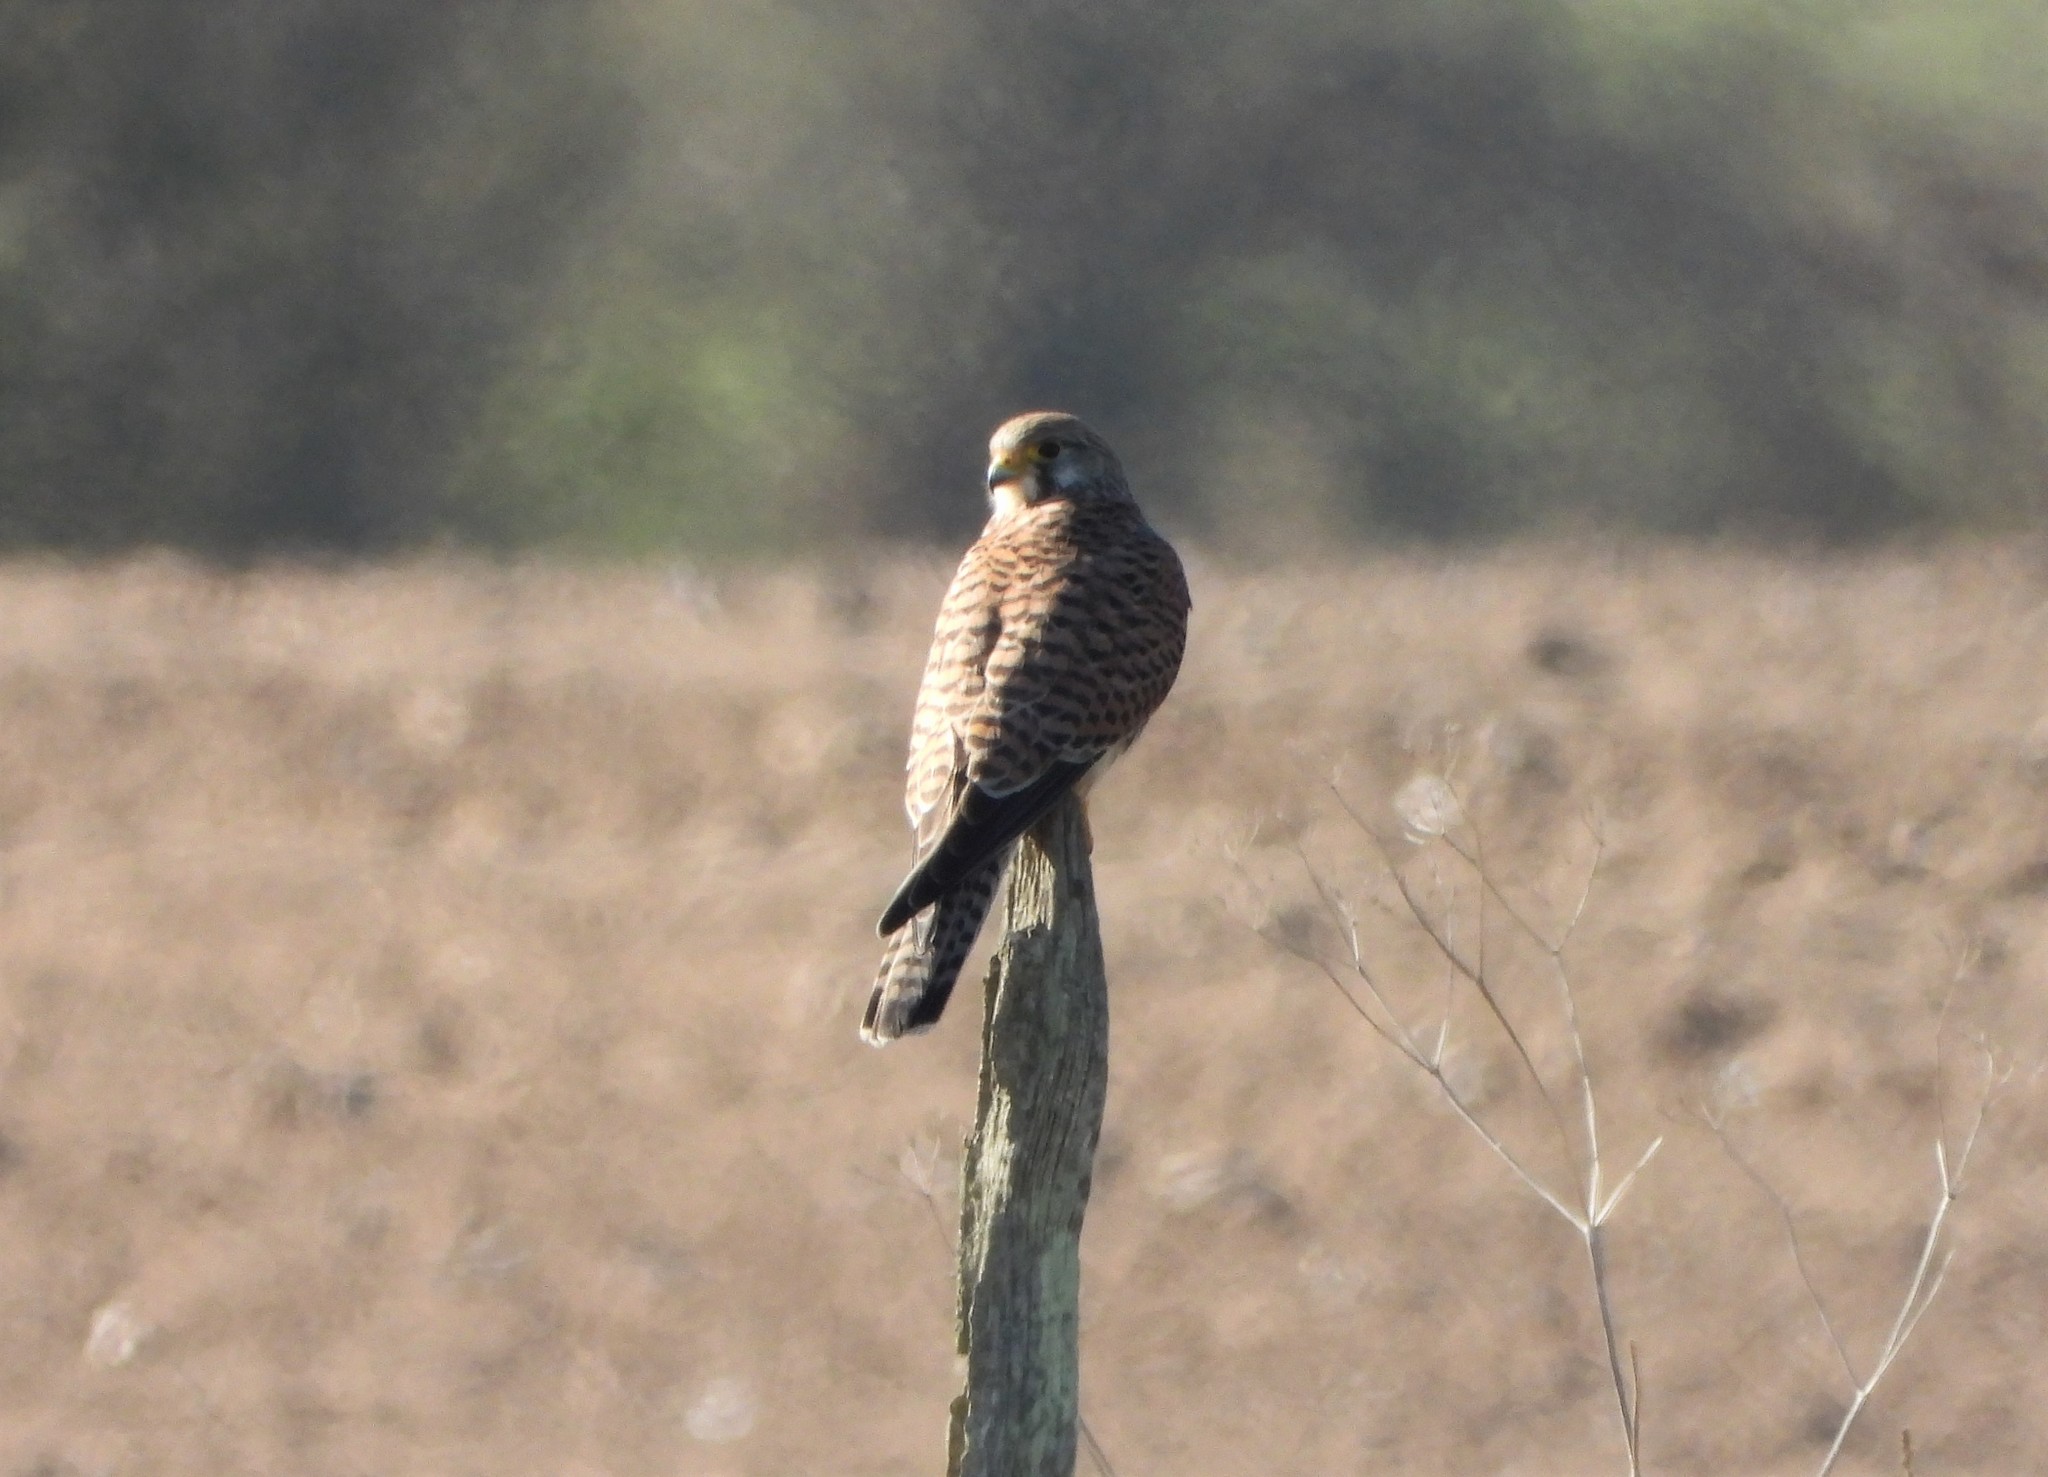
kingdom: Animalia
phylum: Chordata
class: Aves
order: Falconiformes
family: Falconidae
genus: Falco
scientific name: Falco tinnunculus
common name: Common kestrel
